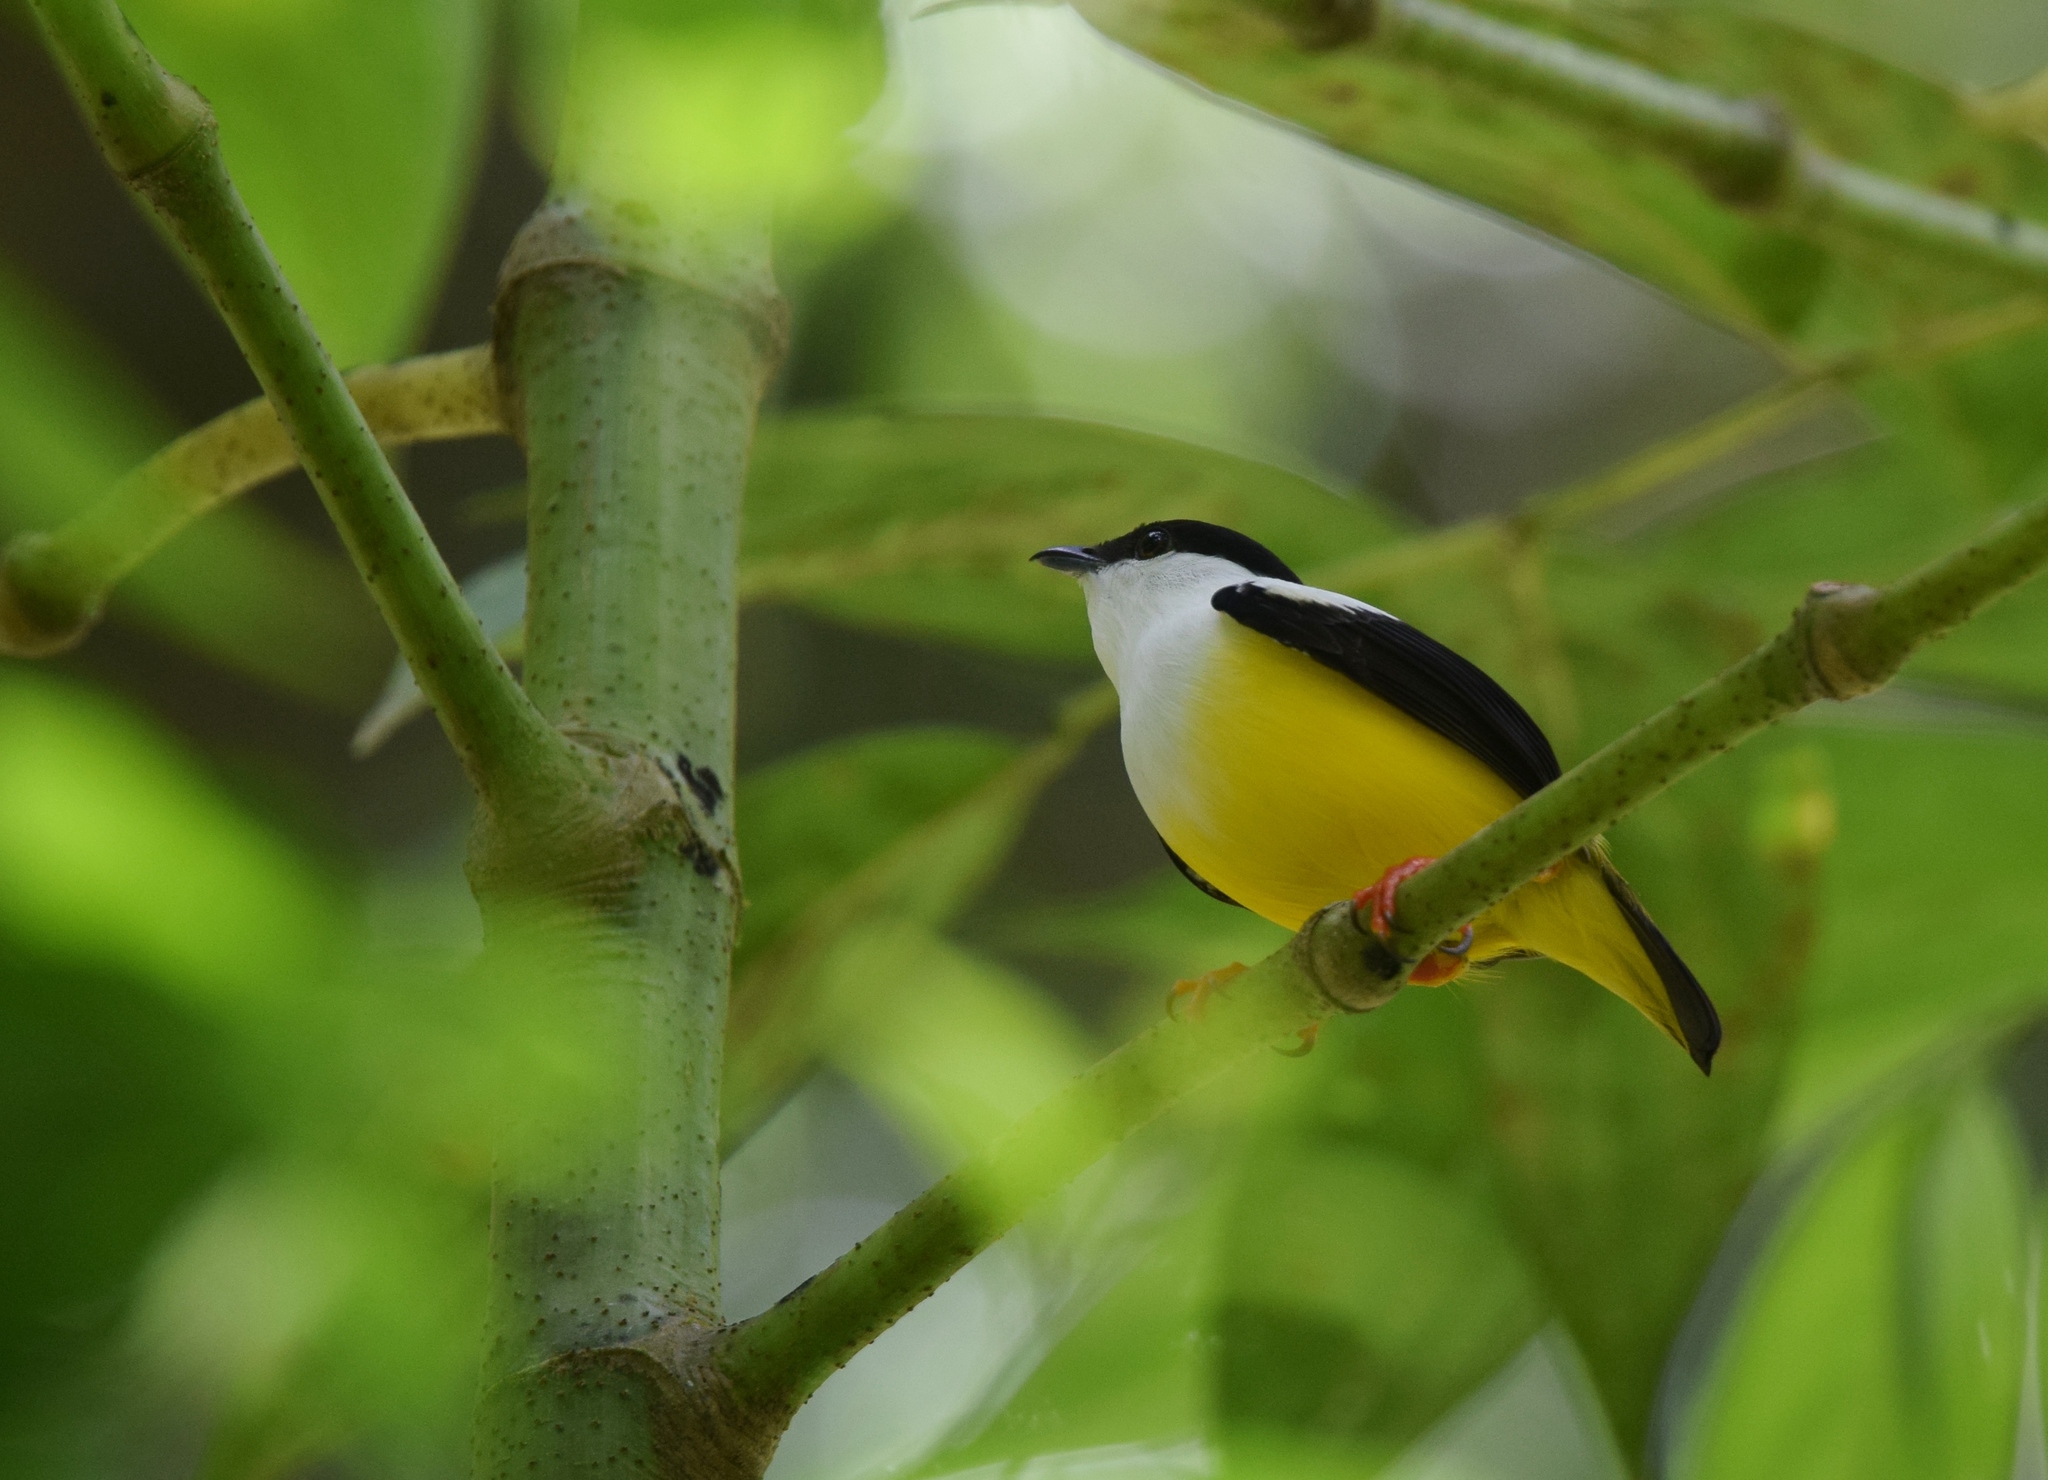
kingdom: Animalia
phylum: Chordata
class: Aves
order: Passeriformes
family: Pipridae
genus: Manacus
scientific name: Manacus candei
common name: White-collared manakin
